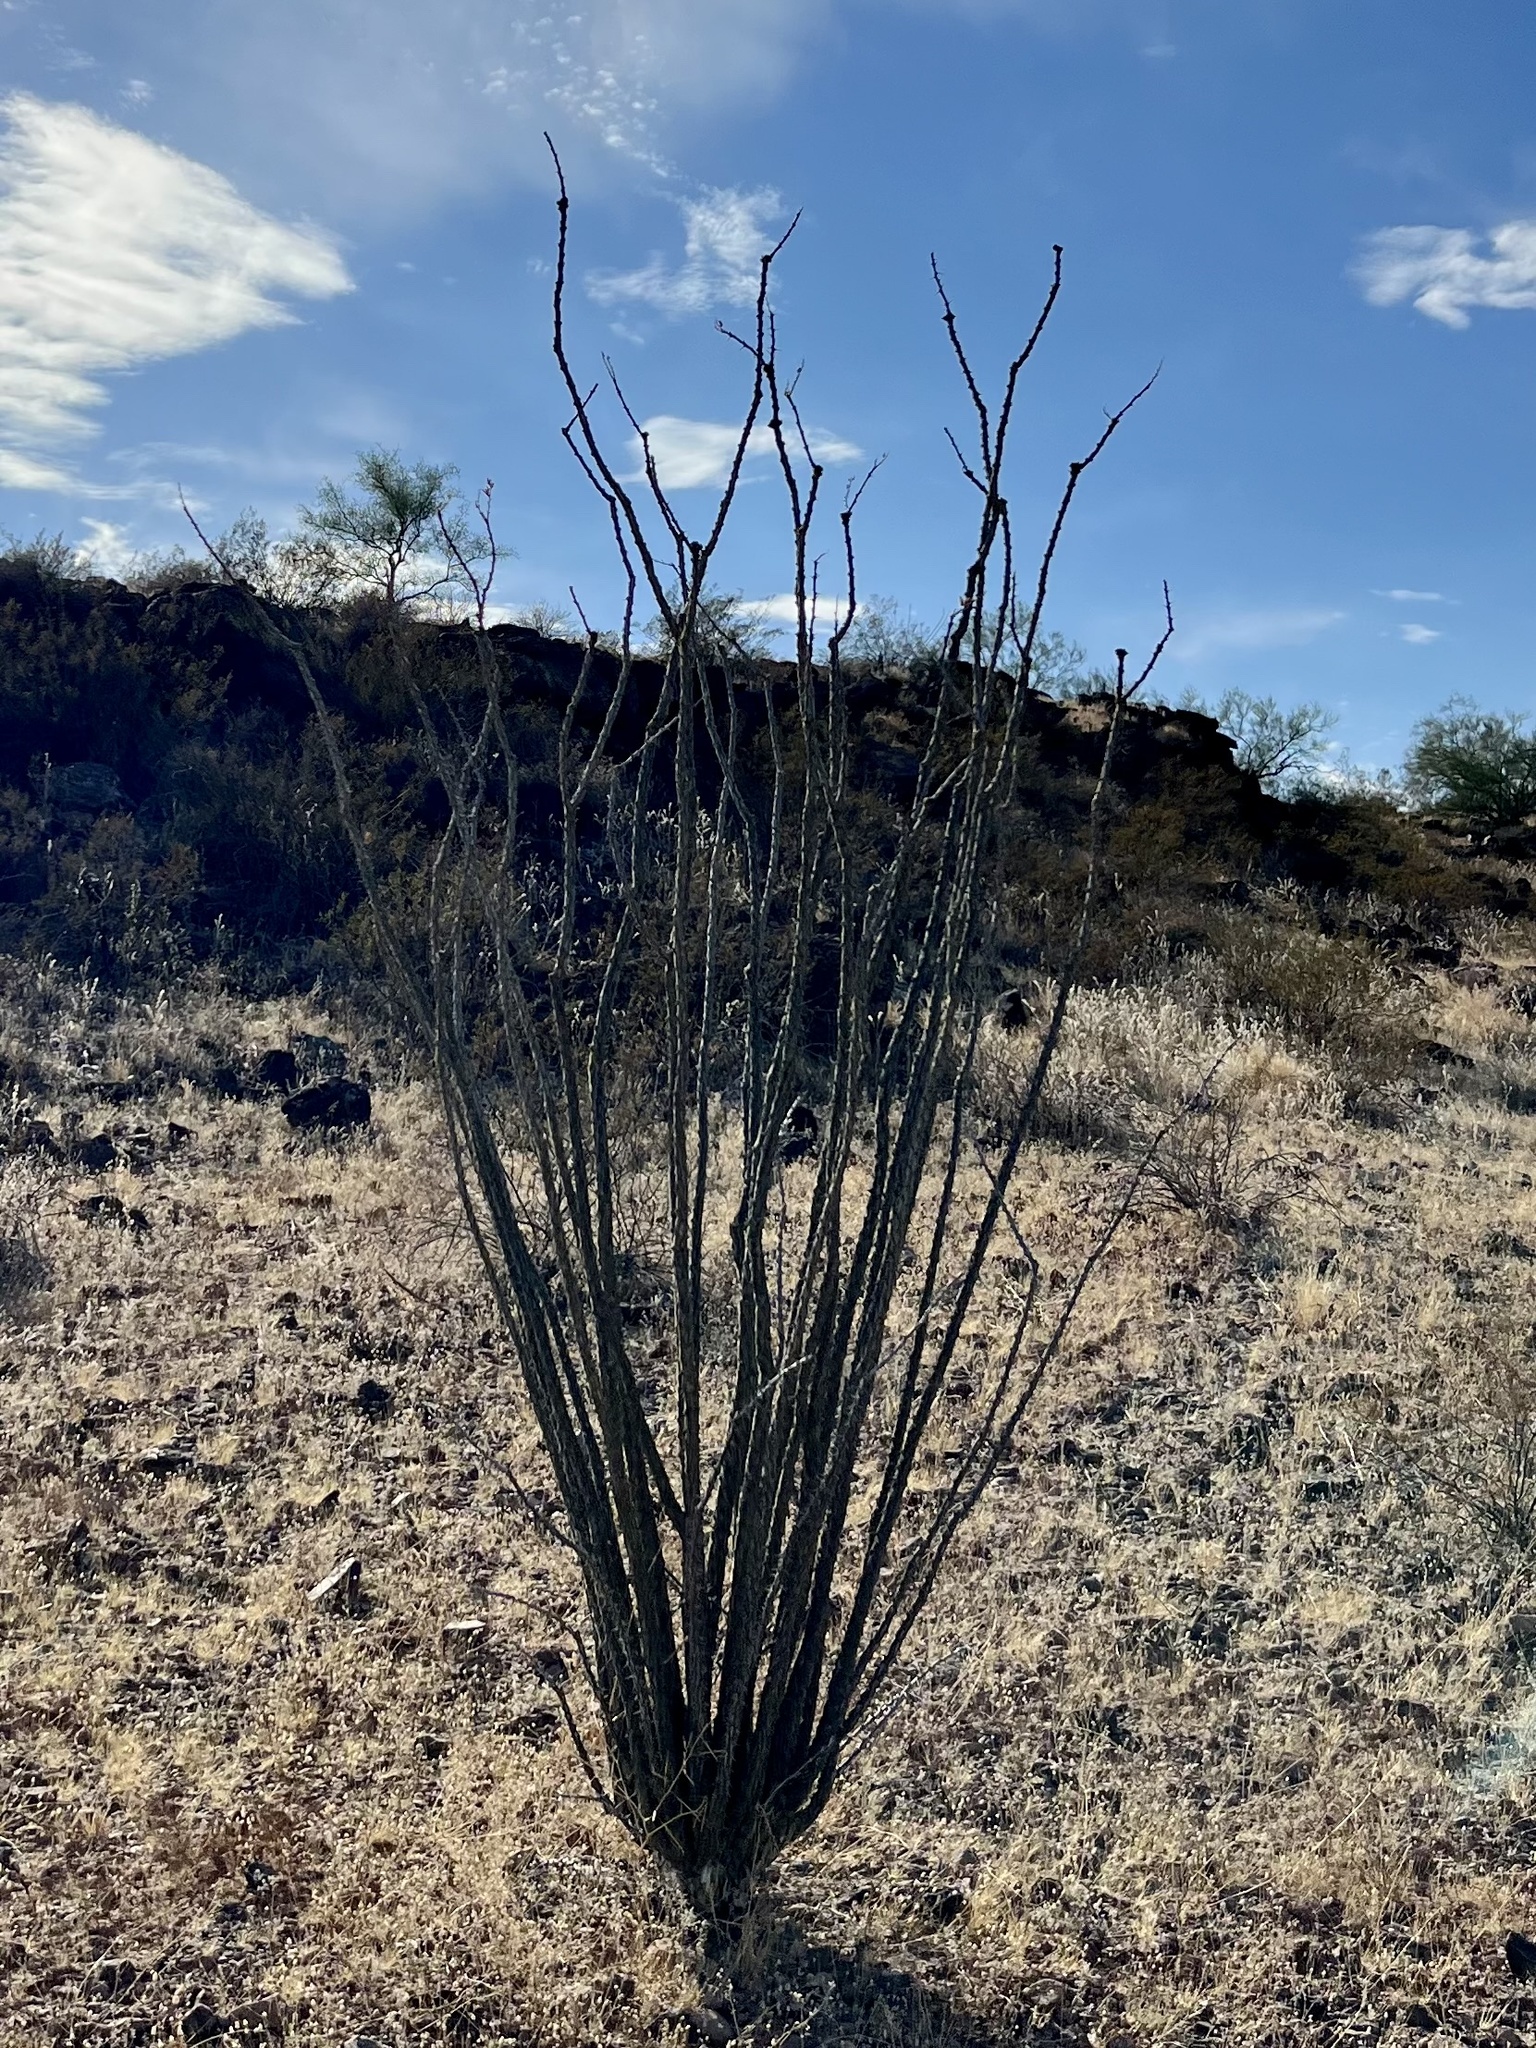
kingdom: Plantae
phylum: Tracheophyta
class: Magnoliopsida
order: Ericales
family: Fouquieriaceae
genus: Fouquieria
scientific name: Fouquieria splendens
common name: Vine-cactus
